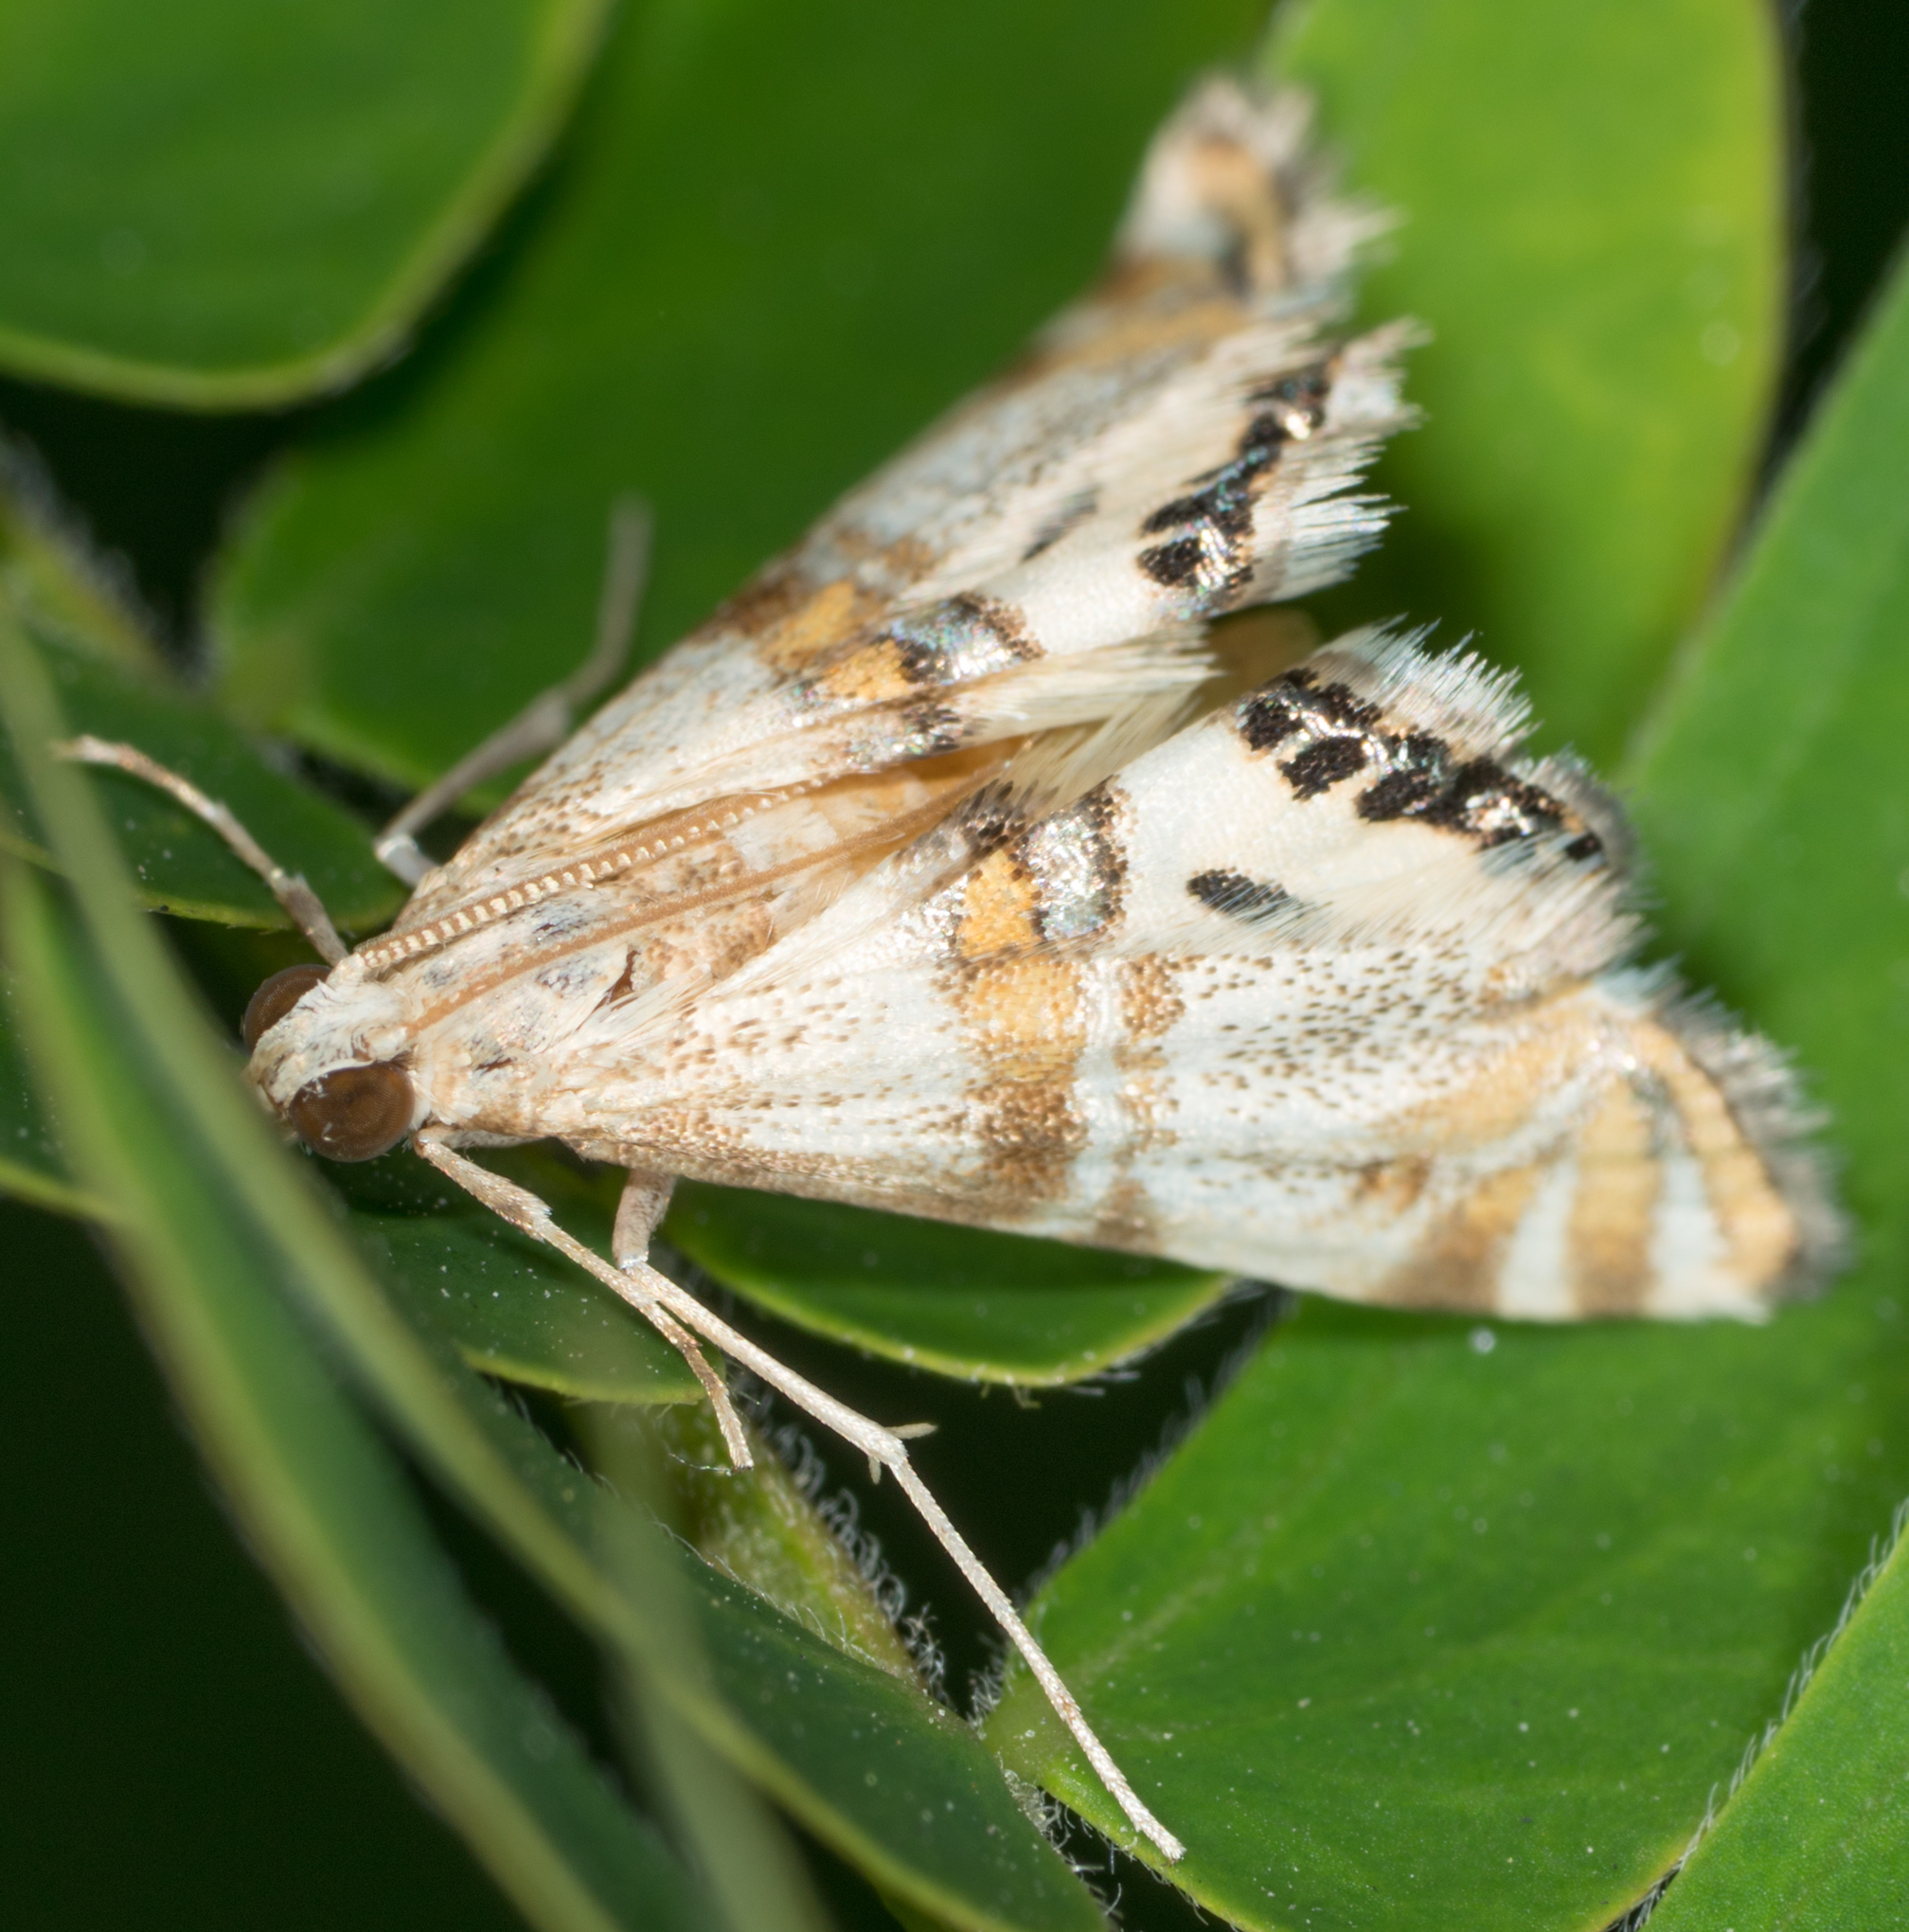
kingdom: Animalia
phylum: Arthropoda
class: Insecta
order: Lepidoptera
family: Crambidae
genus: Petrophila
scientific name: Petrophila bifascialis
